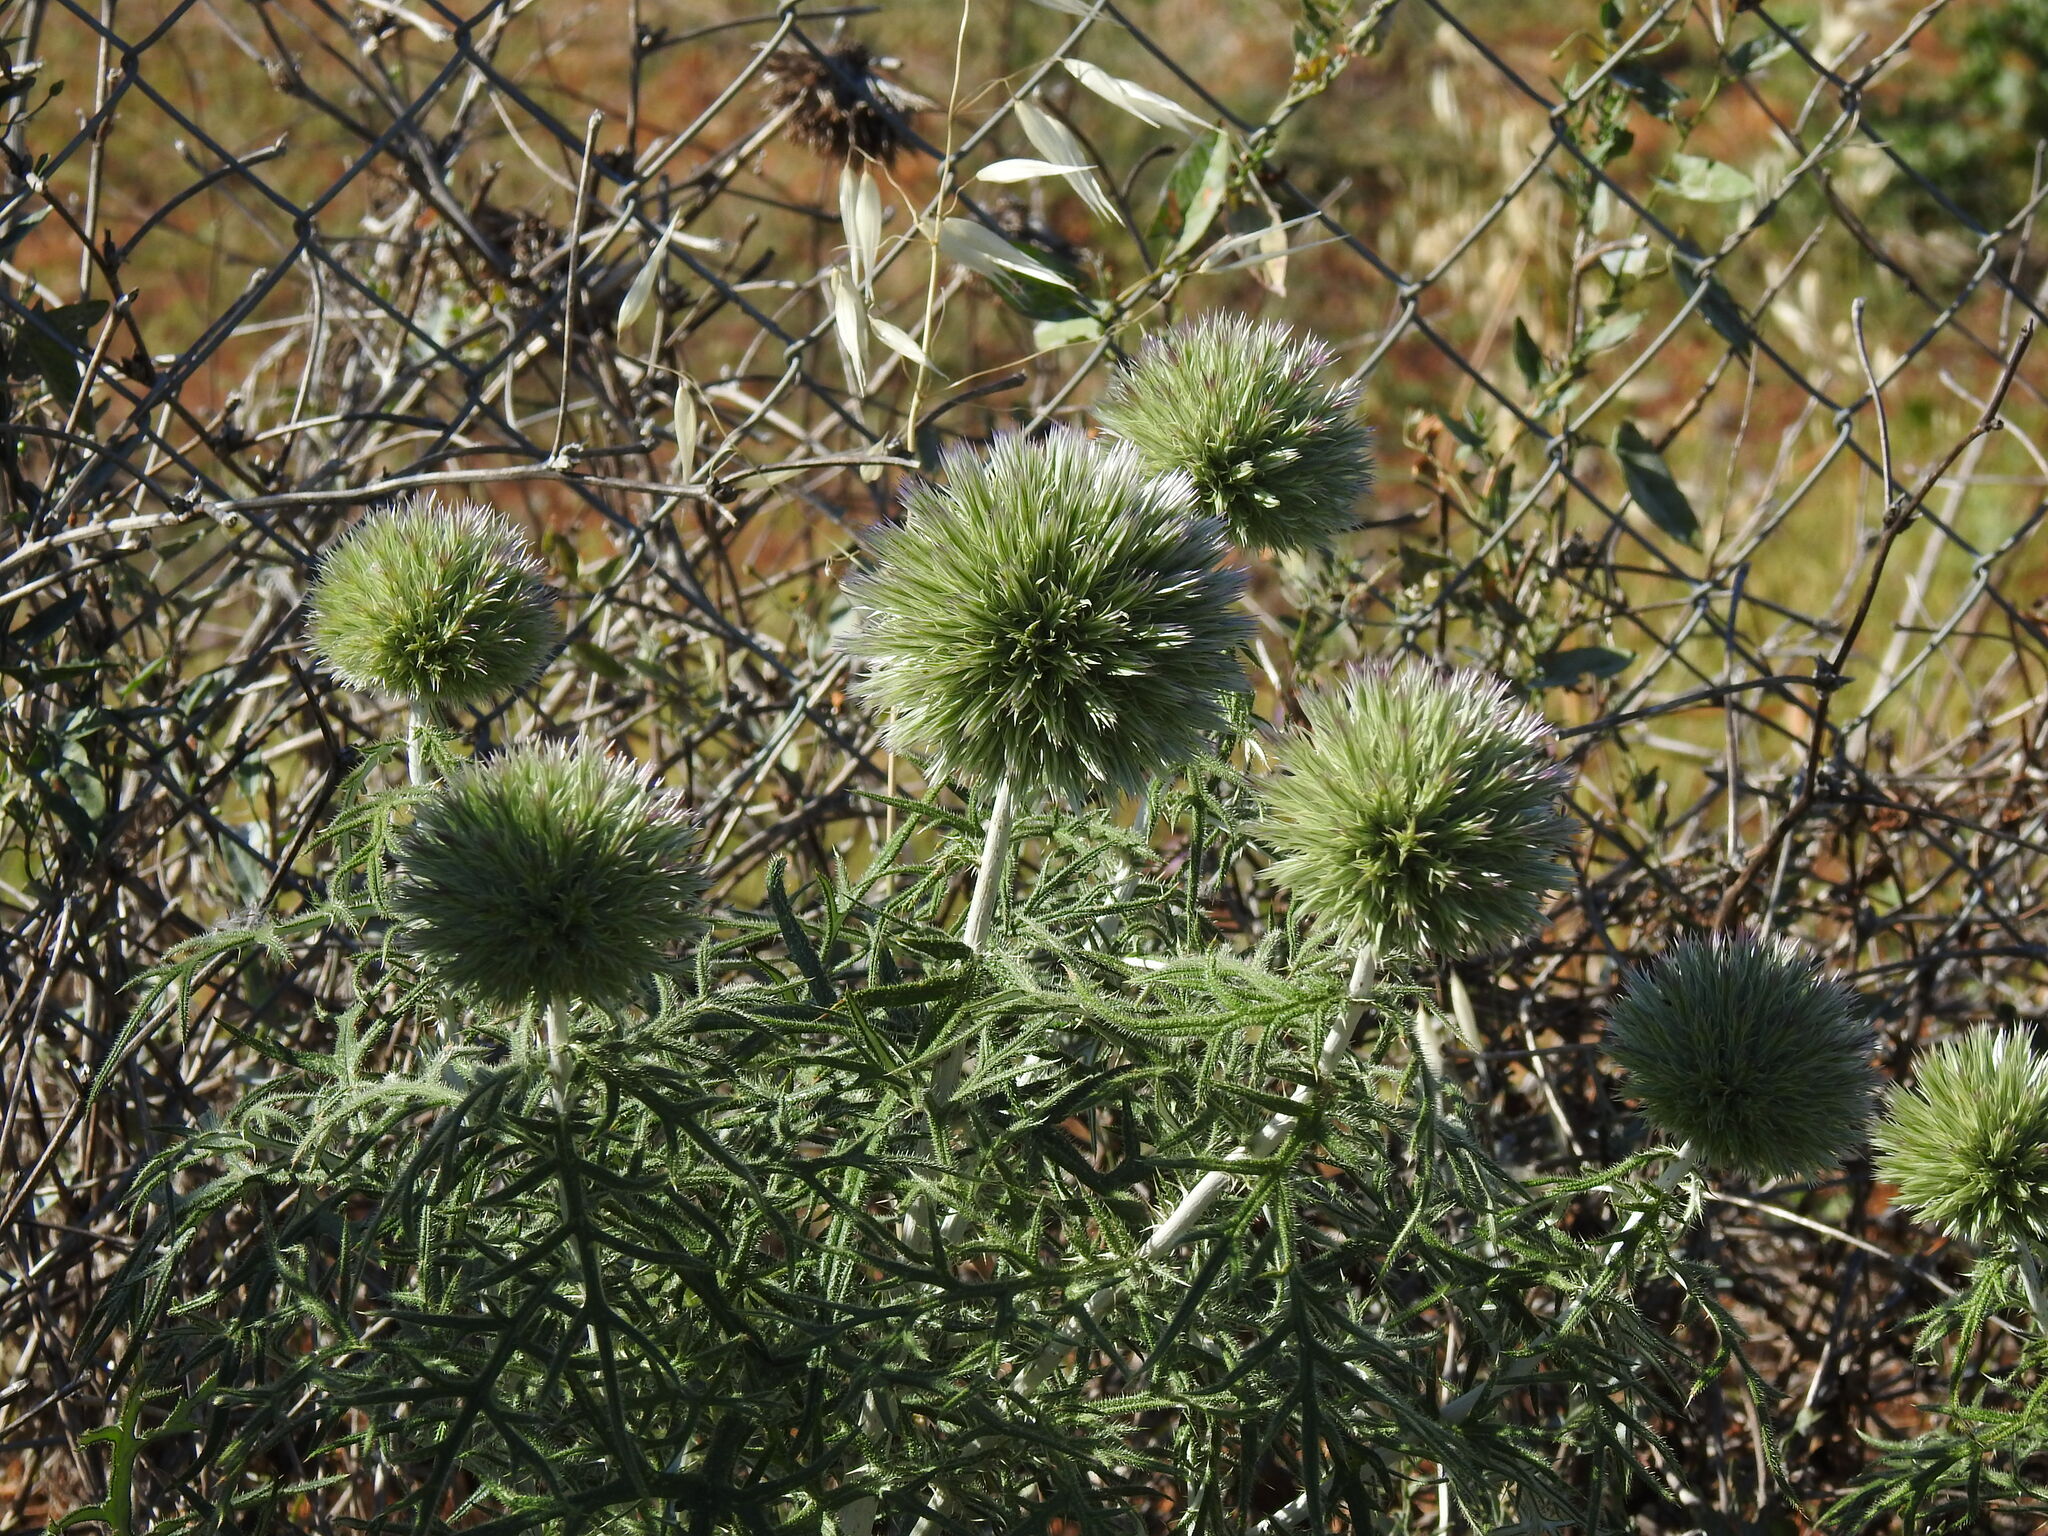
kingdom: Plantae
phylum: Tracheophyta
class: Magnoliopsida
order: Asterales
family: Asteraceae
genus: Echinops
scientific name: Echinops strigosus
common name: Rough-leaf globe thistle
